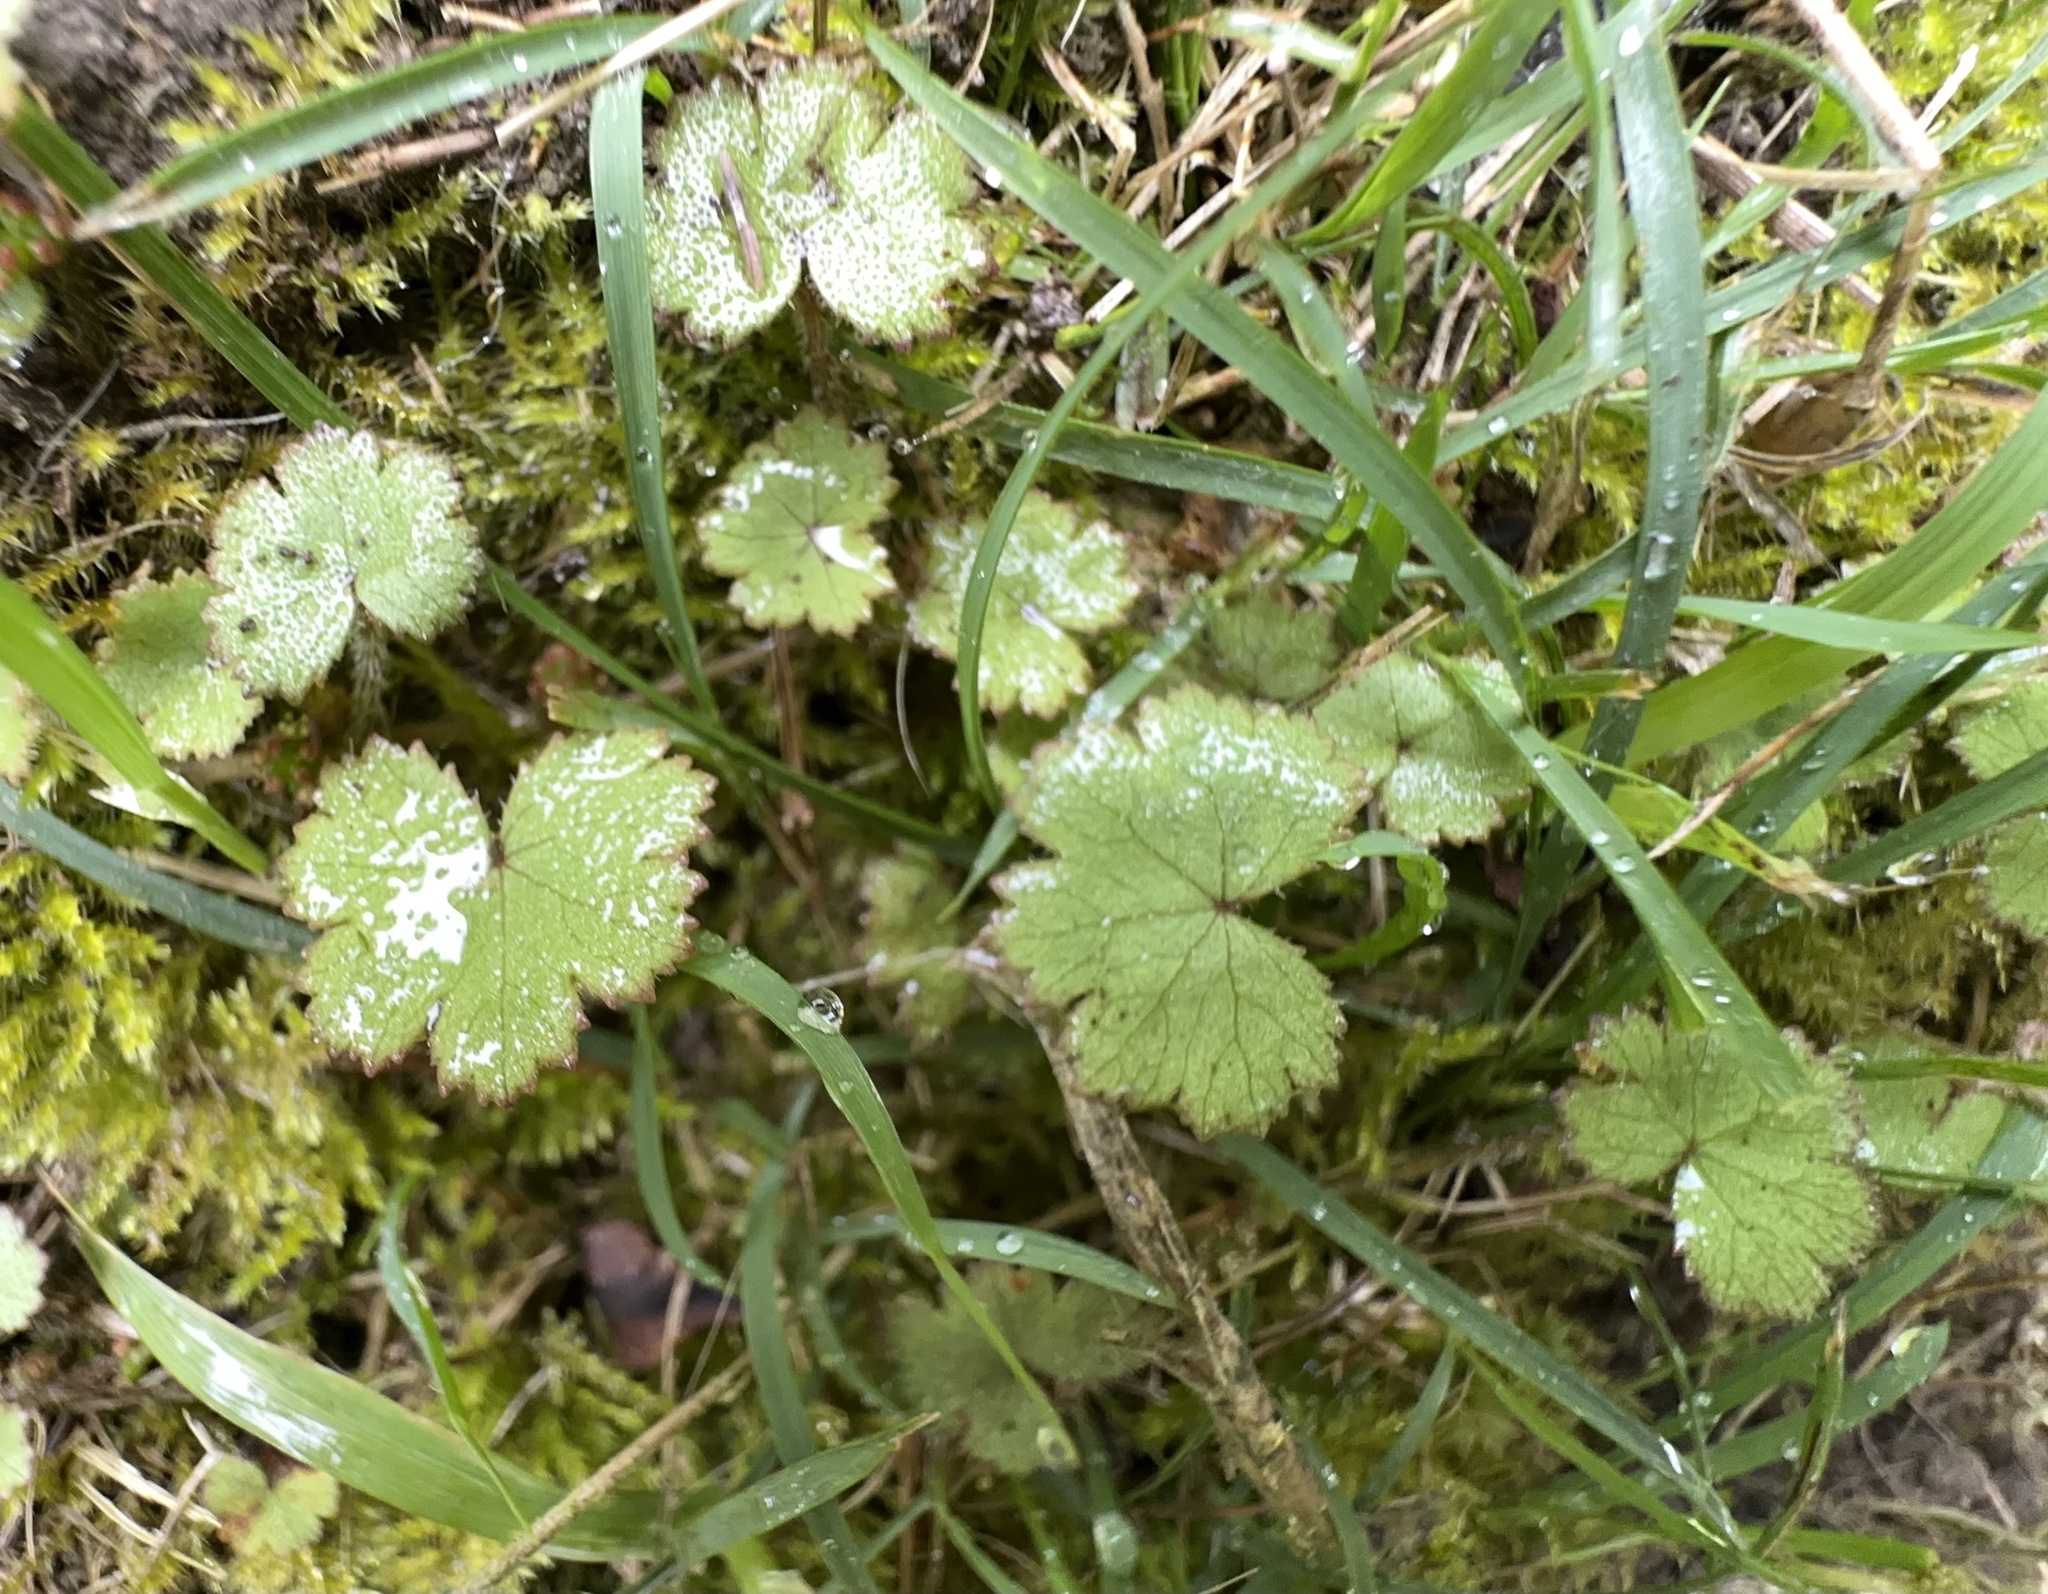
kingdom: Plantae
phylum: Tracheophyta
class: Magnoliopsida
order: Apiales
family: Araliaceae
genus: Hydrocotyle
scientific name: Hydrocotyle moschata
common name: Hairy pennywort
